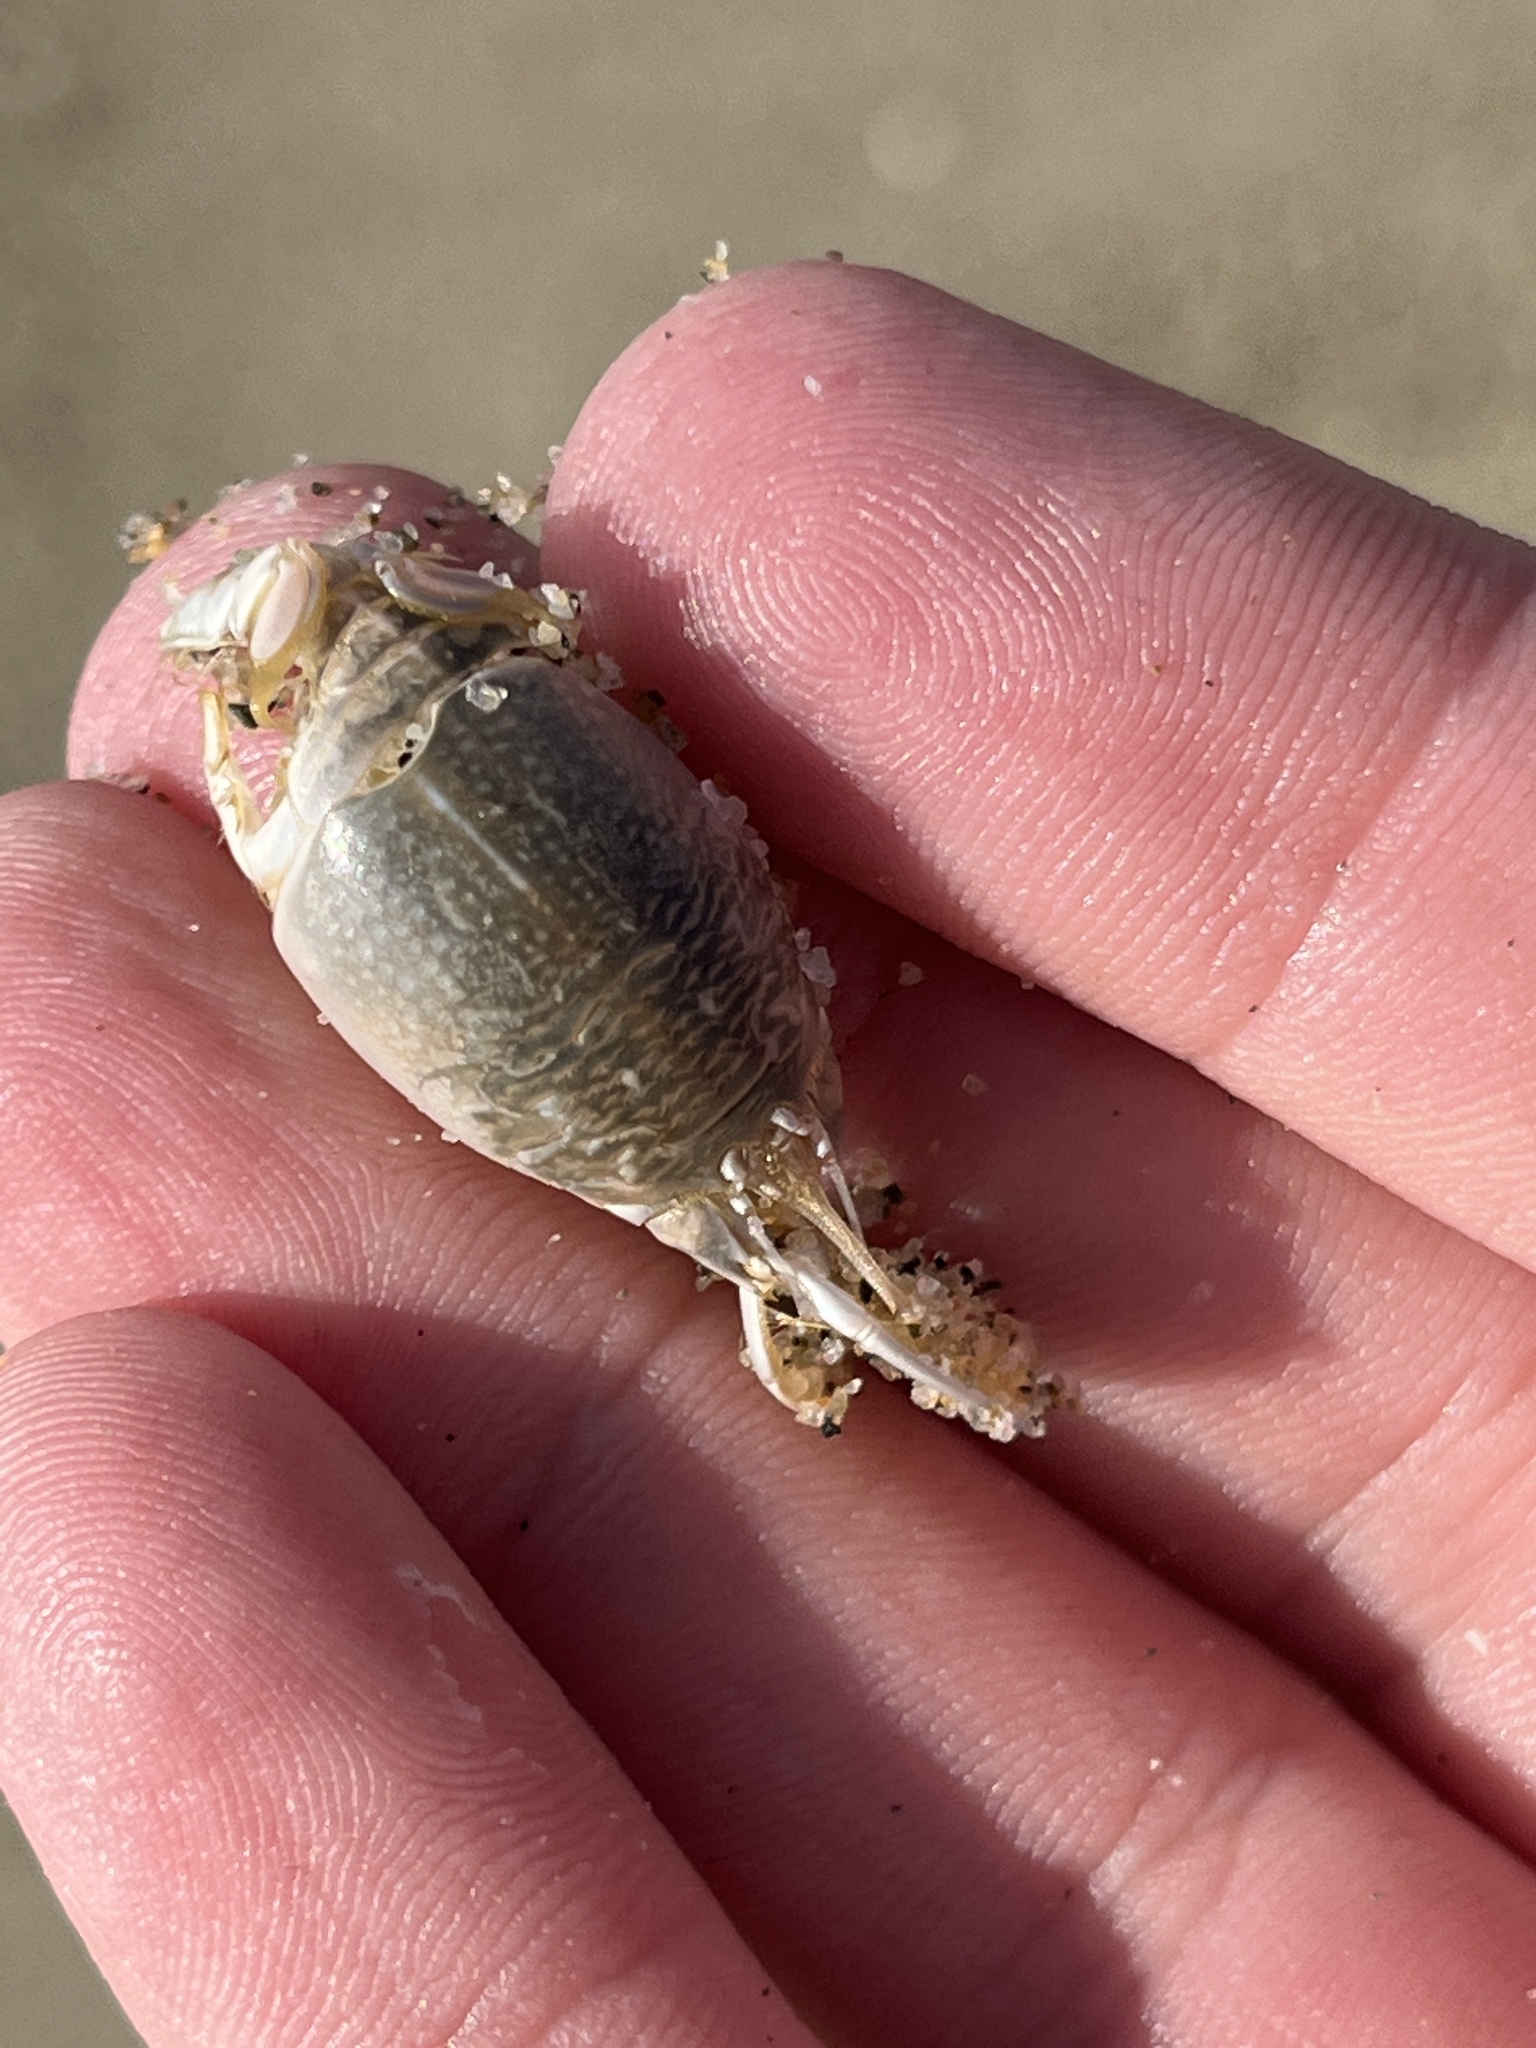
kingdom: Animalia
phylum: Arthropoda
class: Malacostraca
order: Decapoda
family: Hippidae
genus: Emerita
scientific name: Emerita analoga
